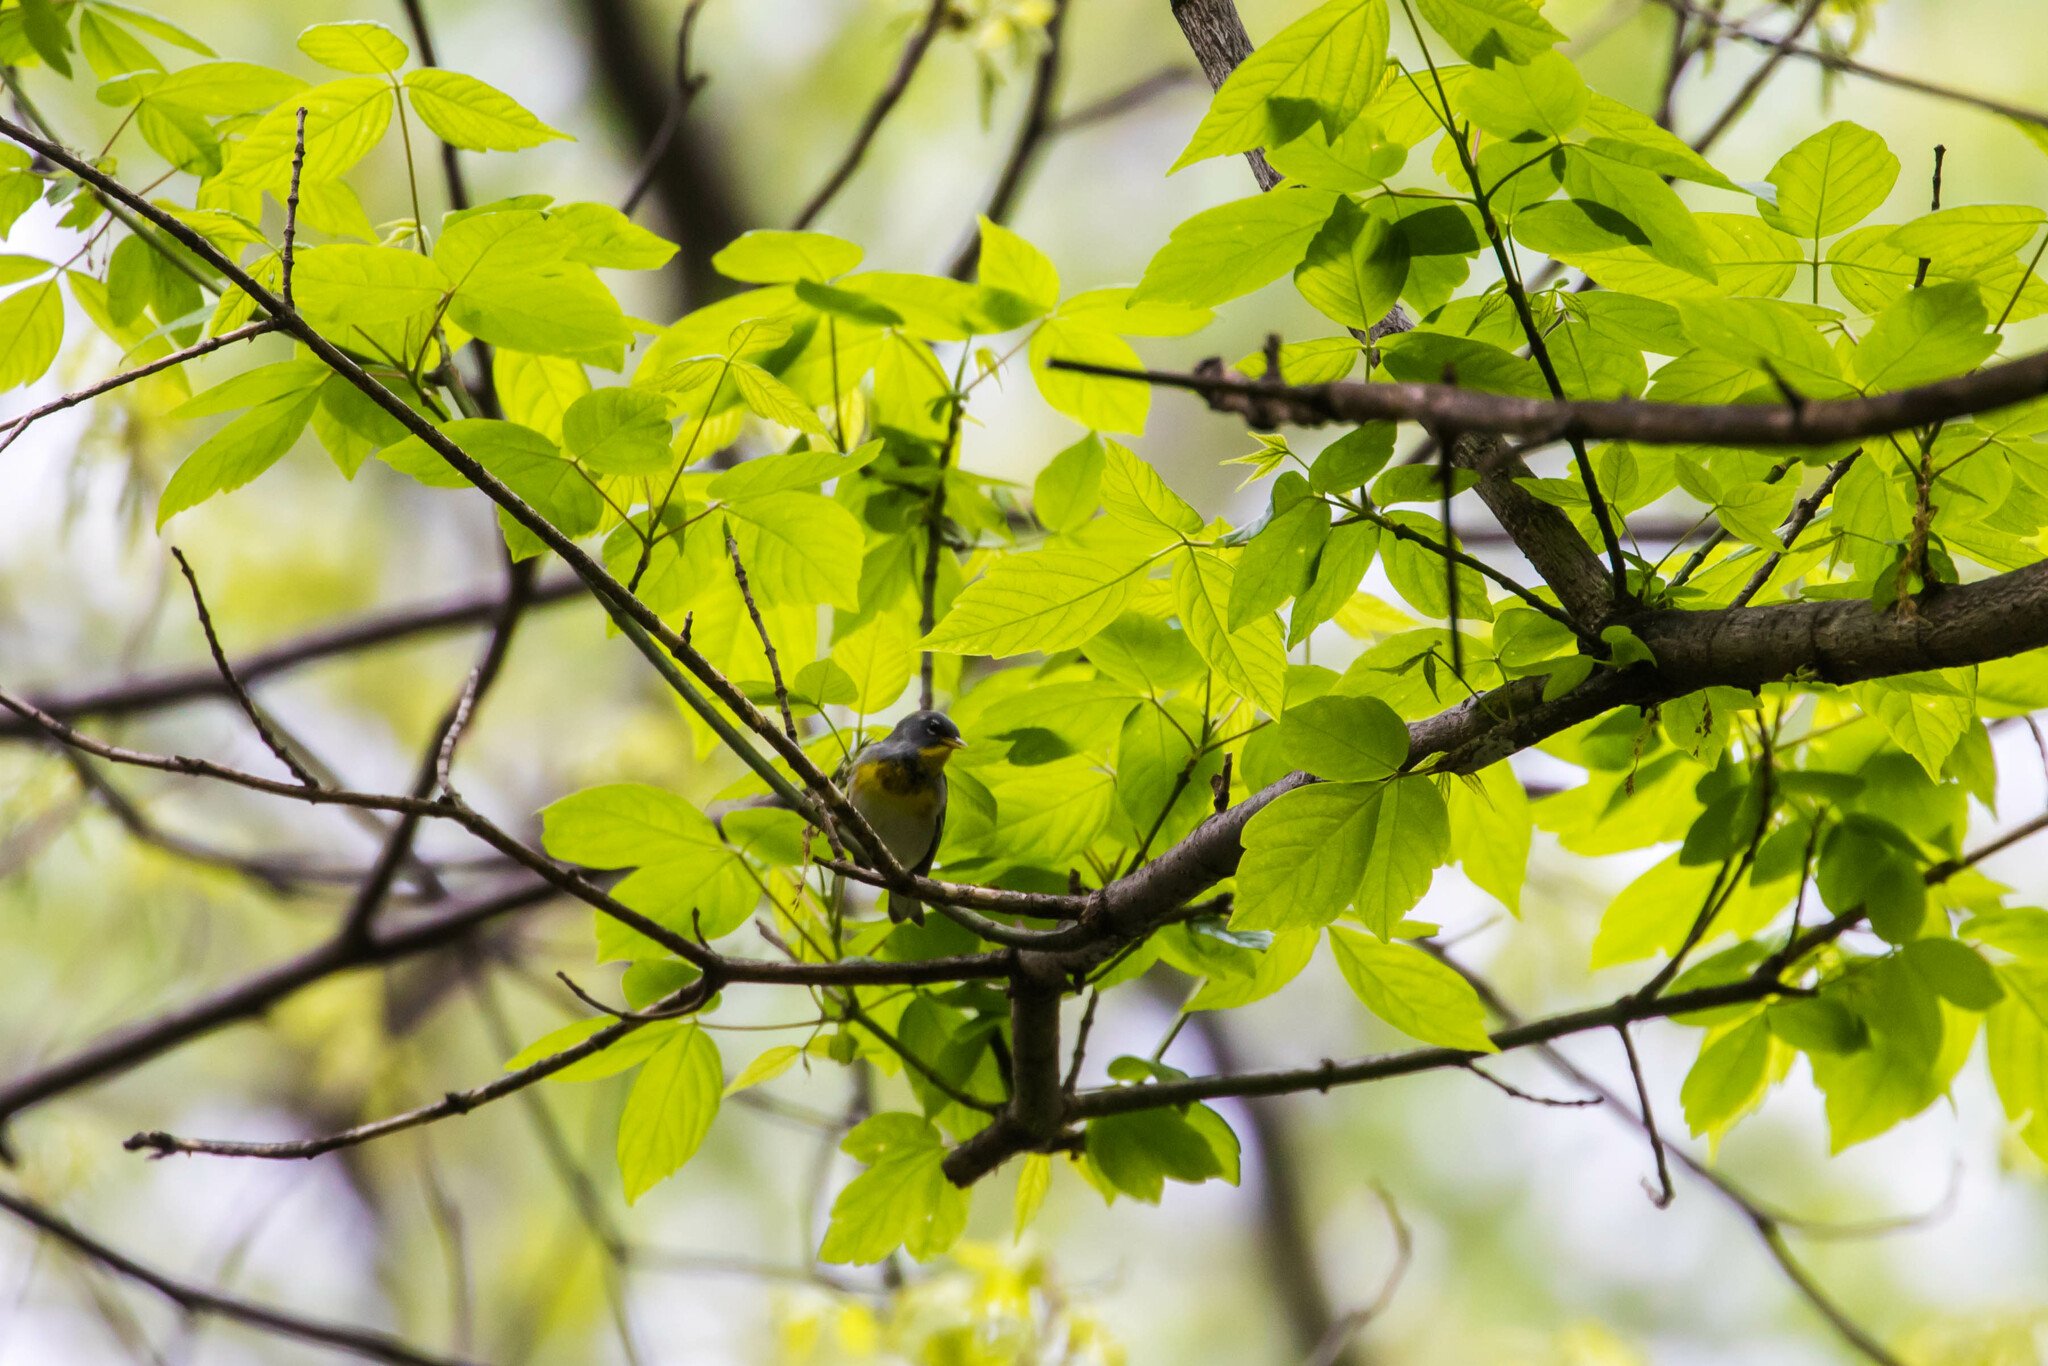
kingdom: Animalia
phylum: Chordata
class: Aves
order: Passeriformes
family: Parulidae
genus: Setophaga
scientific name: Setophaga americana
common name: Northern parula
